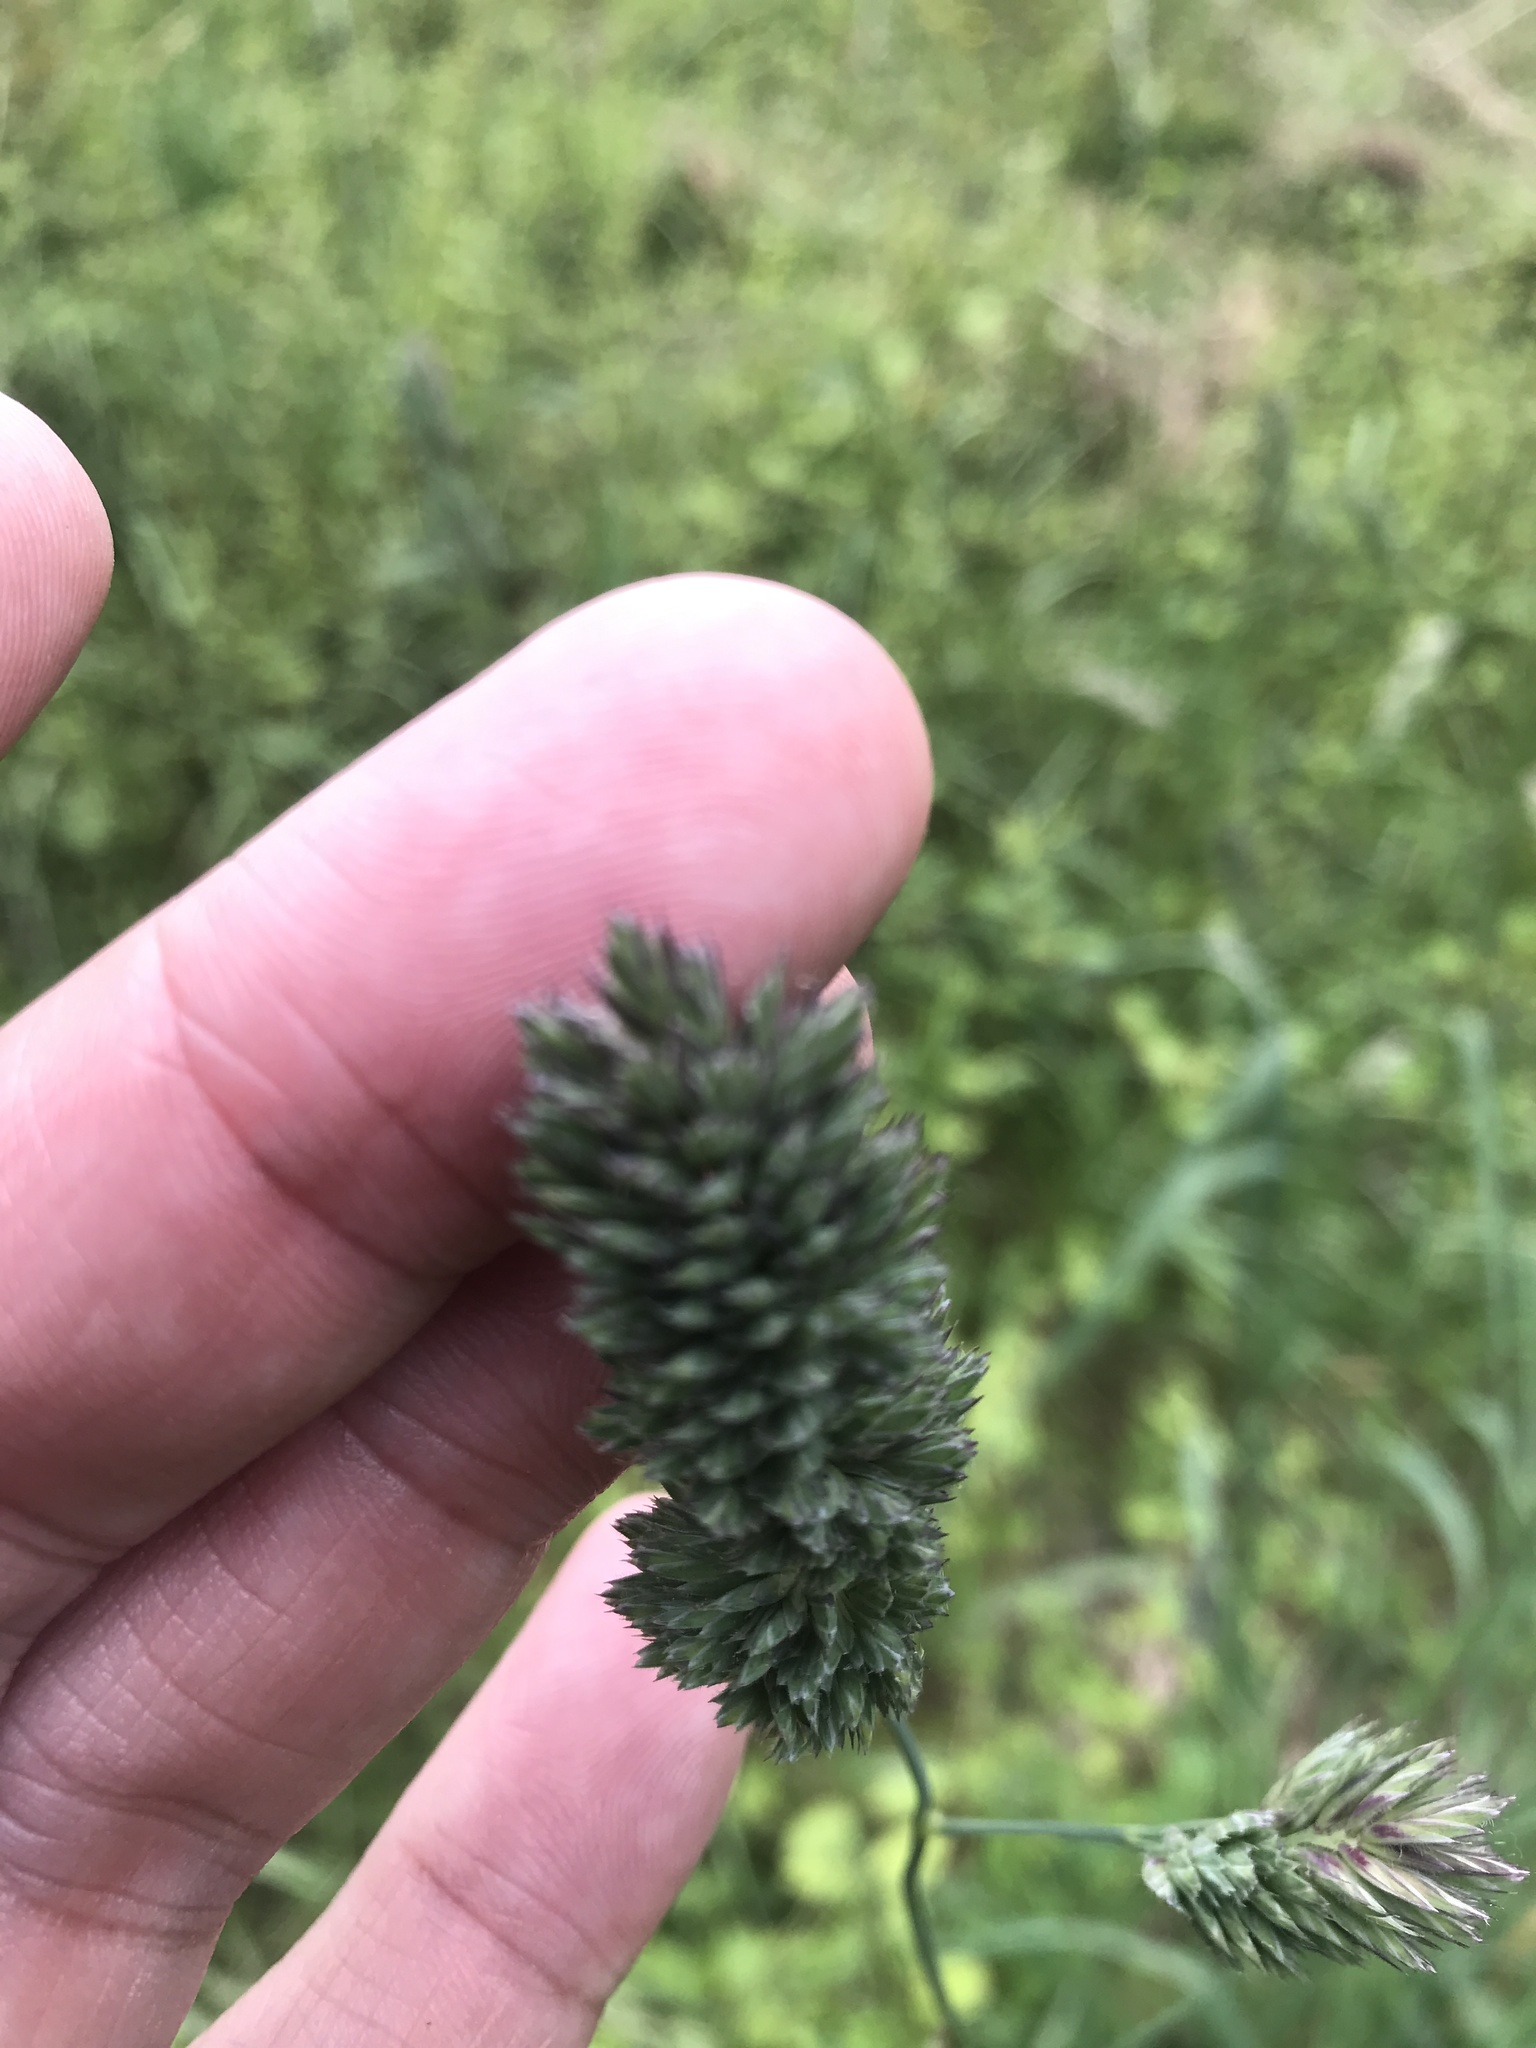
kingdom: Plantae
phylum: Tracheophyta
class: Liliopsida
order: Poales
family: Poaceae
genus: Dactylis
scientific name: Dactylis glomerata
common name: Orchardgrass
